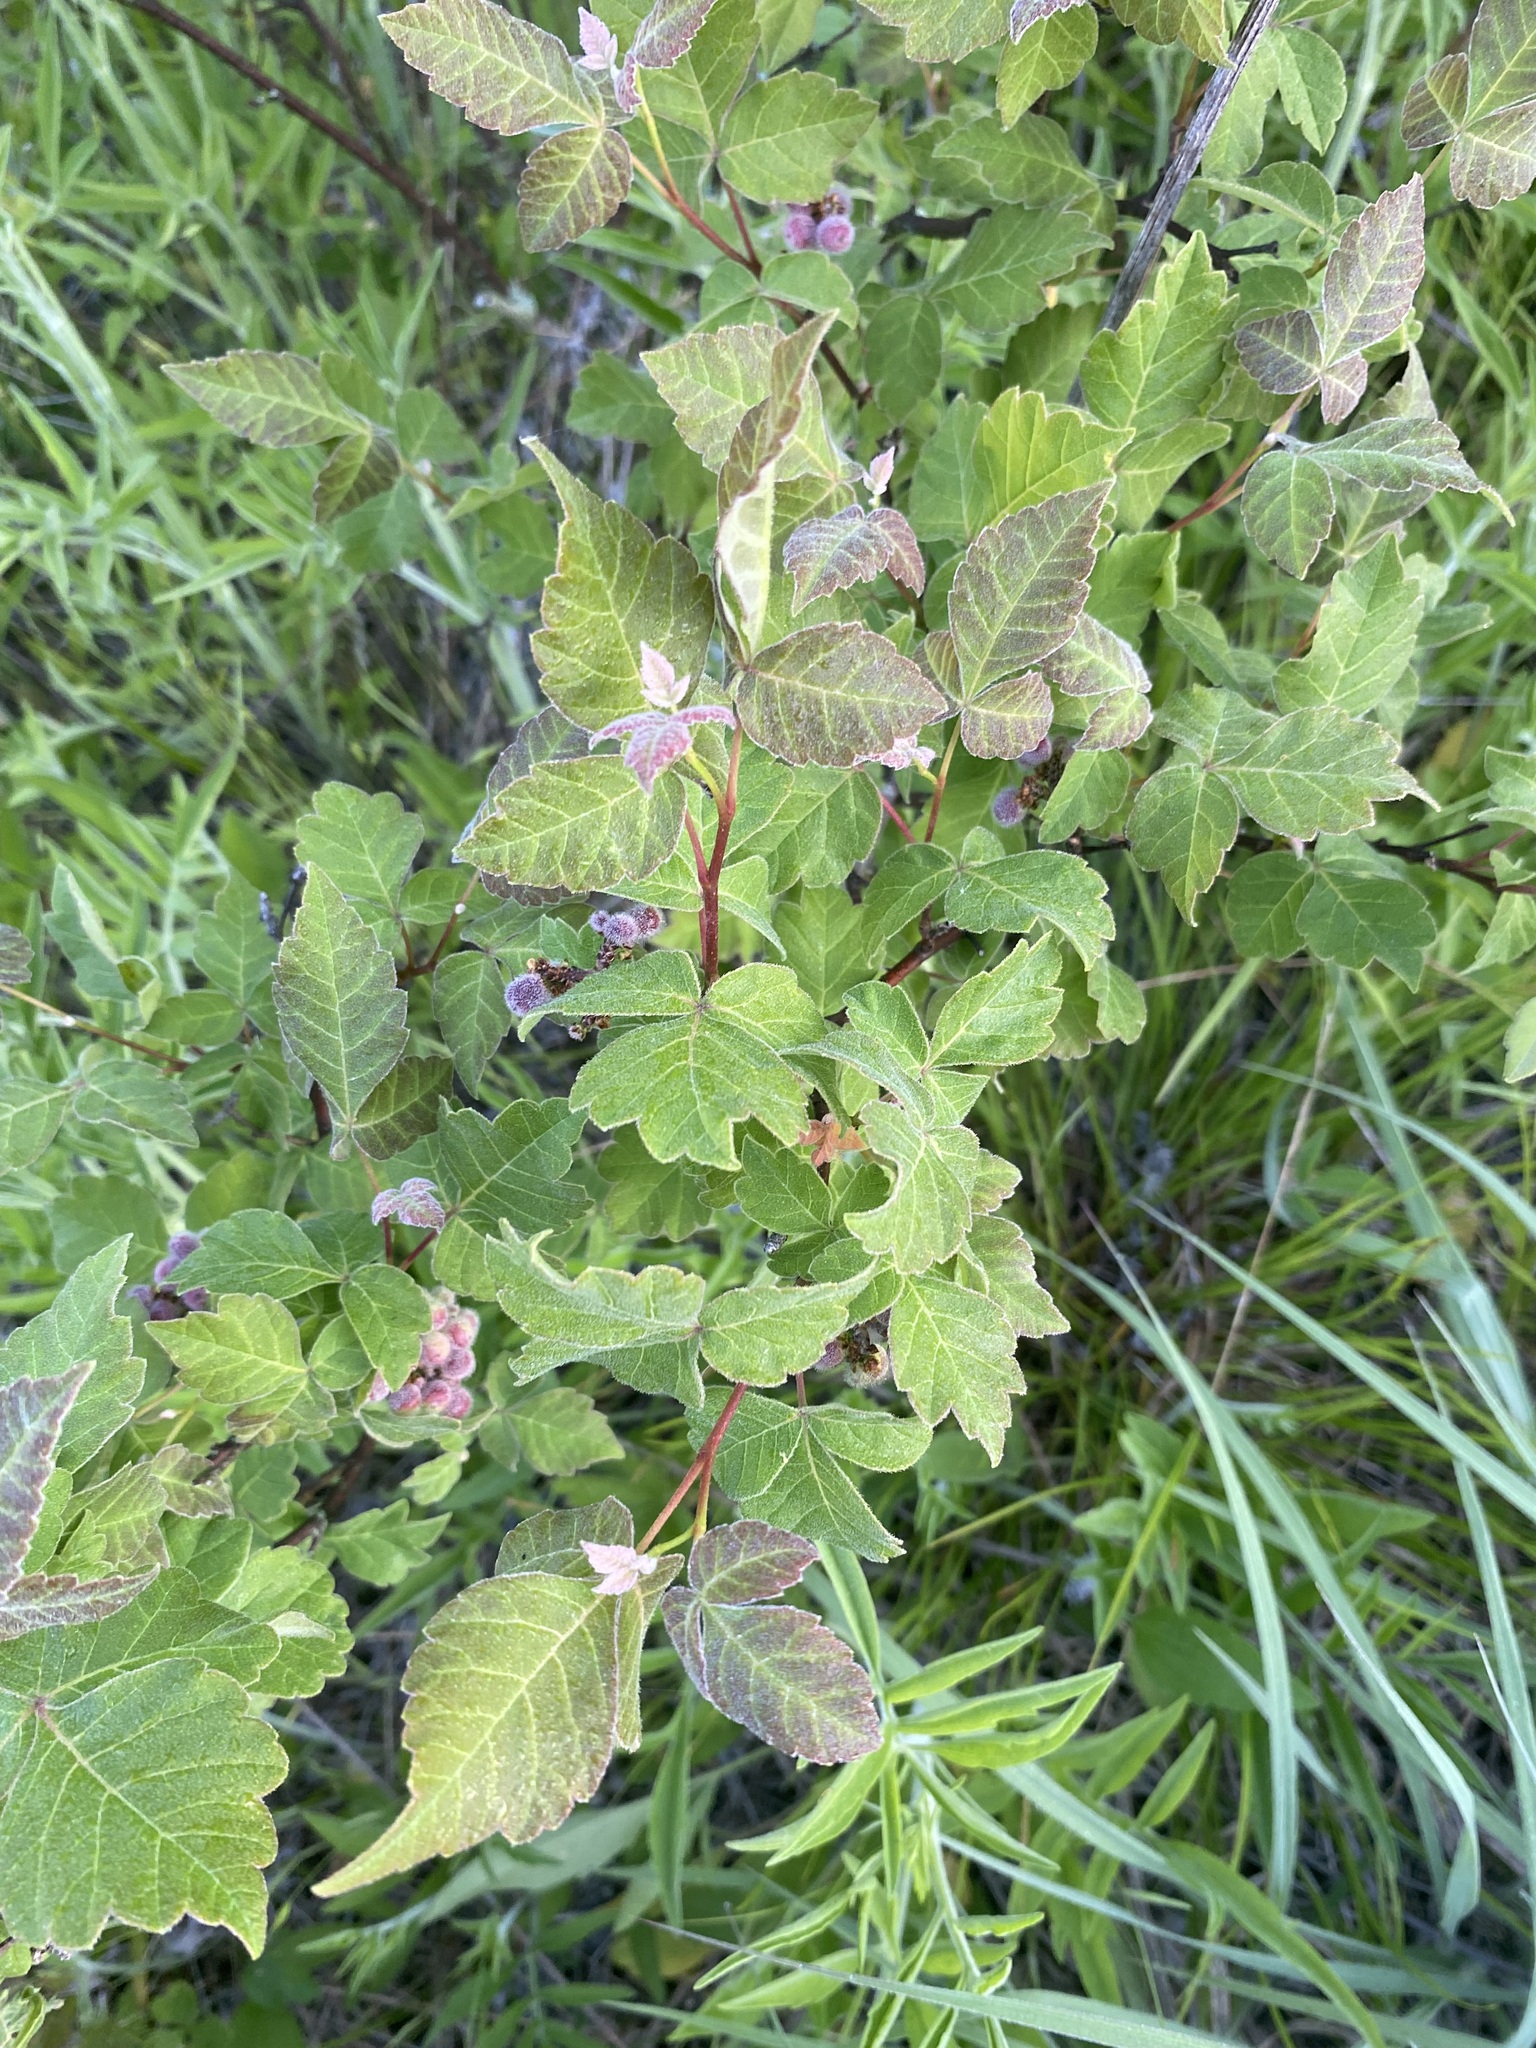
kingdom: Plantae
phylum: Tracheophyta
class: Magnoliopsida
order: Sapindales
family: Anacardiaceae
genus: Rhus
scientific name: Rhus aromatica
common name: Aromatic sumac
